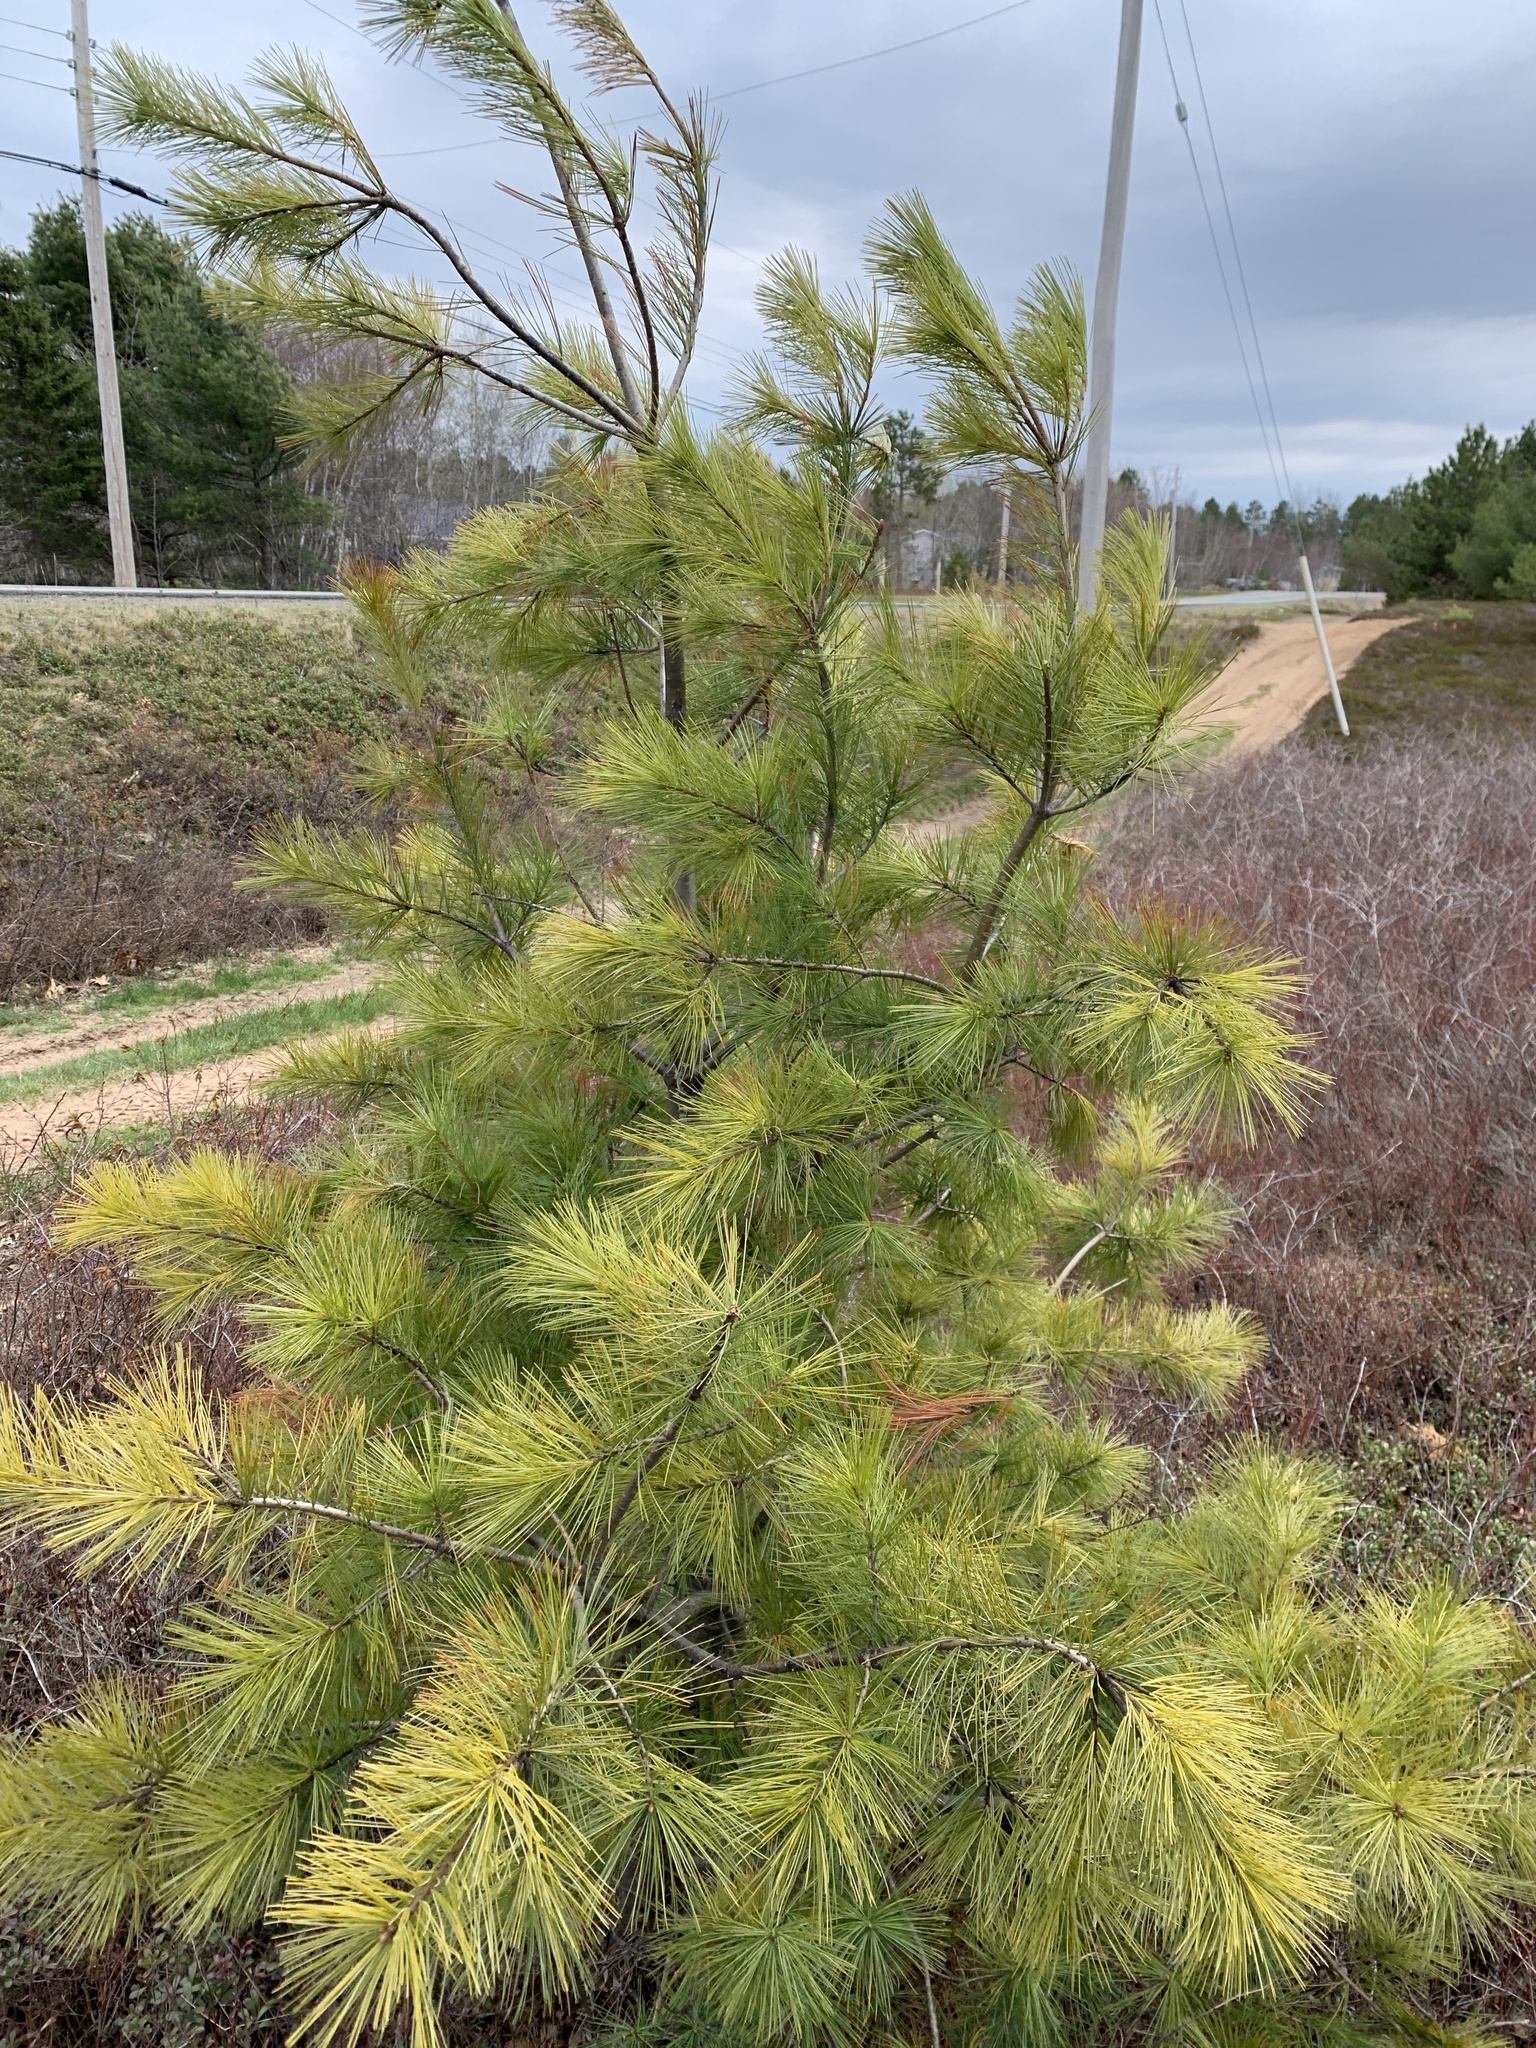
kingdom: Plantae
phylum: Tracheophyta
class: Pinopsida
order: Pinales
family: Pinaceae
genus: Pinus
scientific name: Pinus strobus
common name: Weymouth pine
